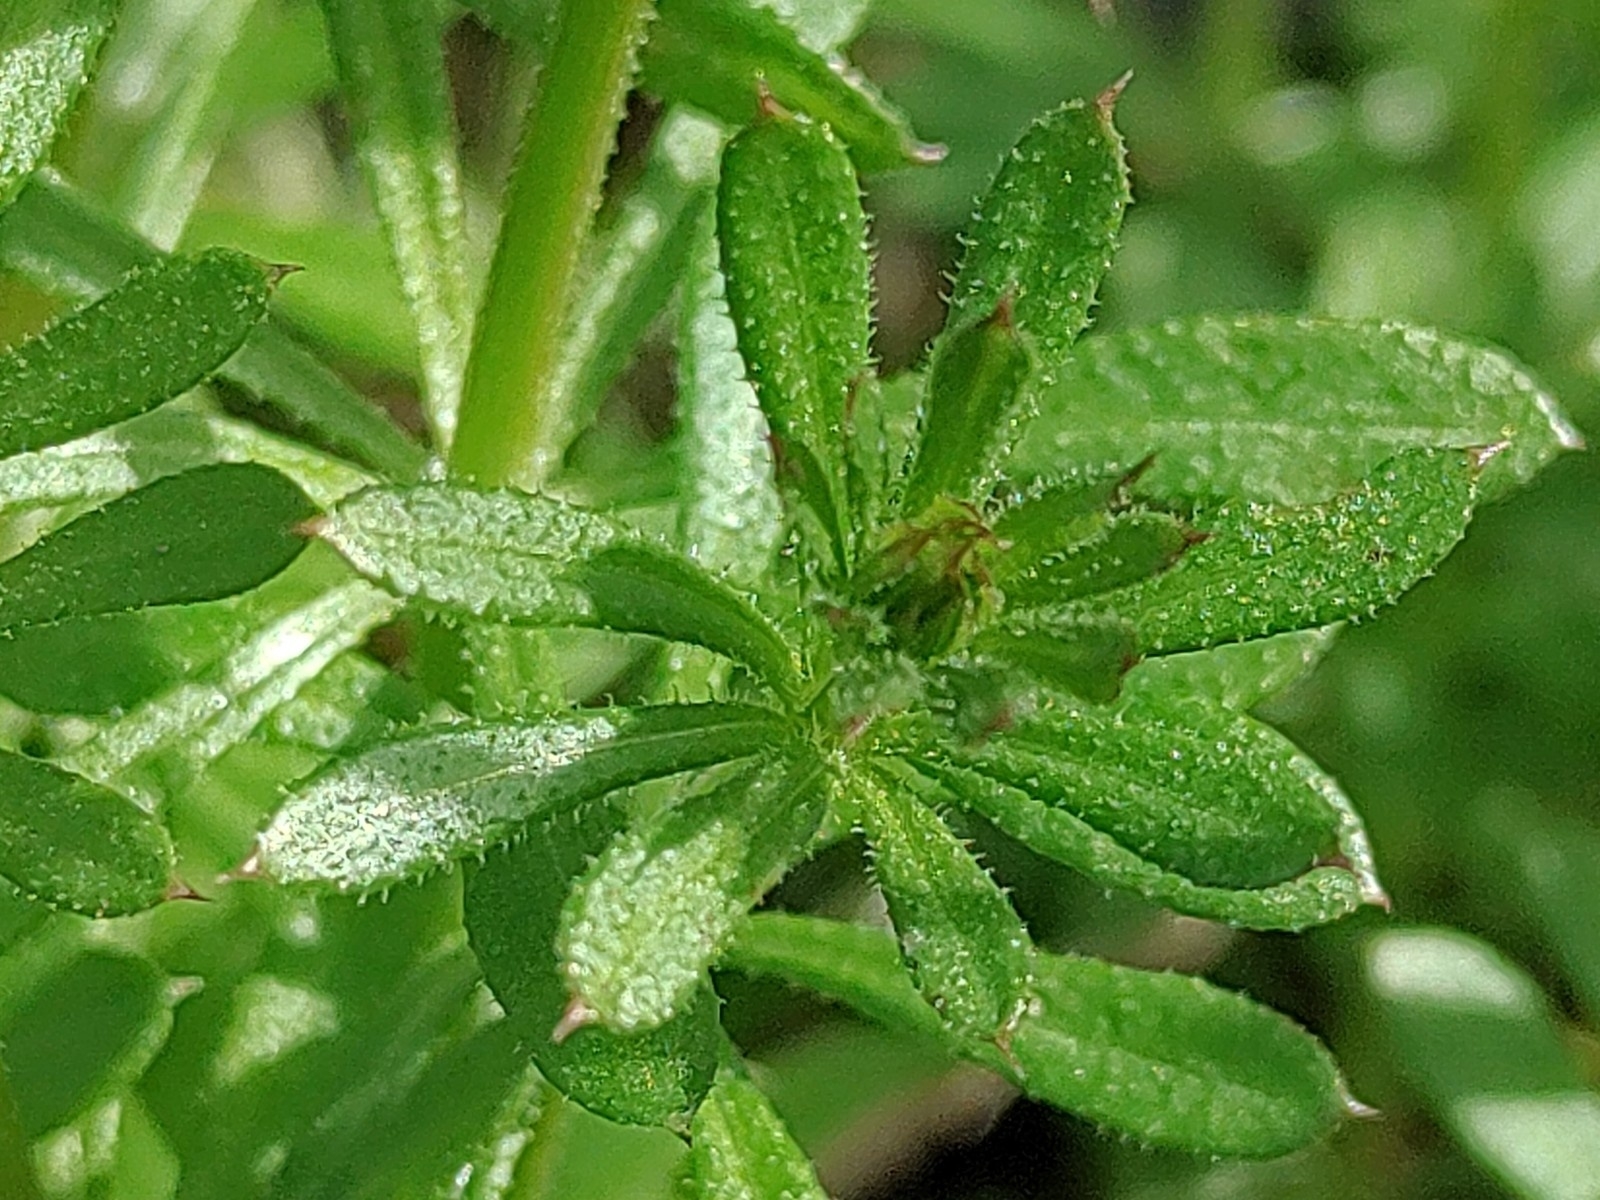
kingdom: Plantae
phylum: Tracheophyta
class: Magnoliopsida
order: Gentianales
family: Rubiaceae
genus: Galium
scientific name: Galium aparine
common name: Cleavers
